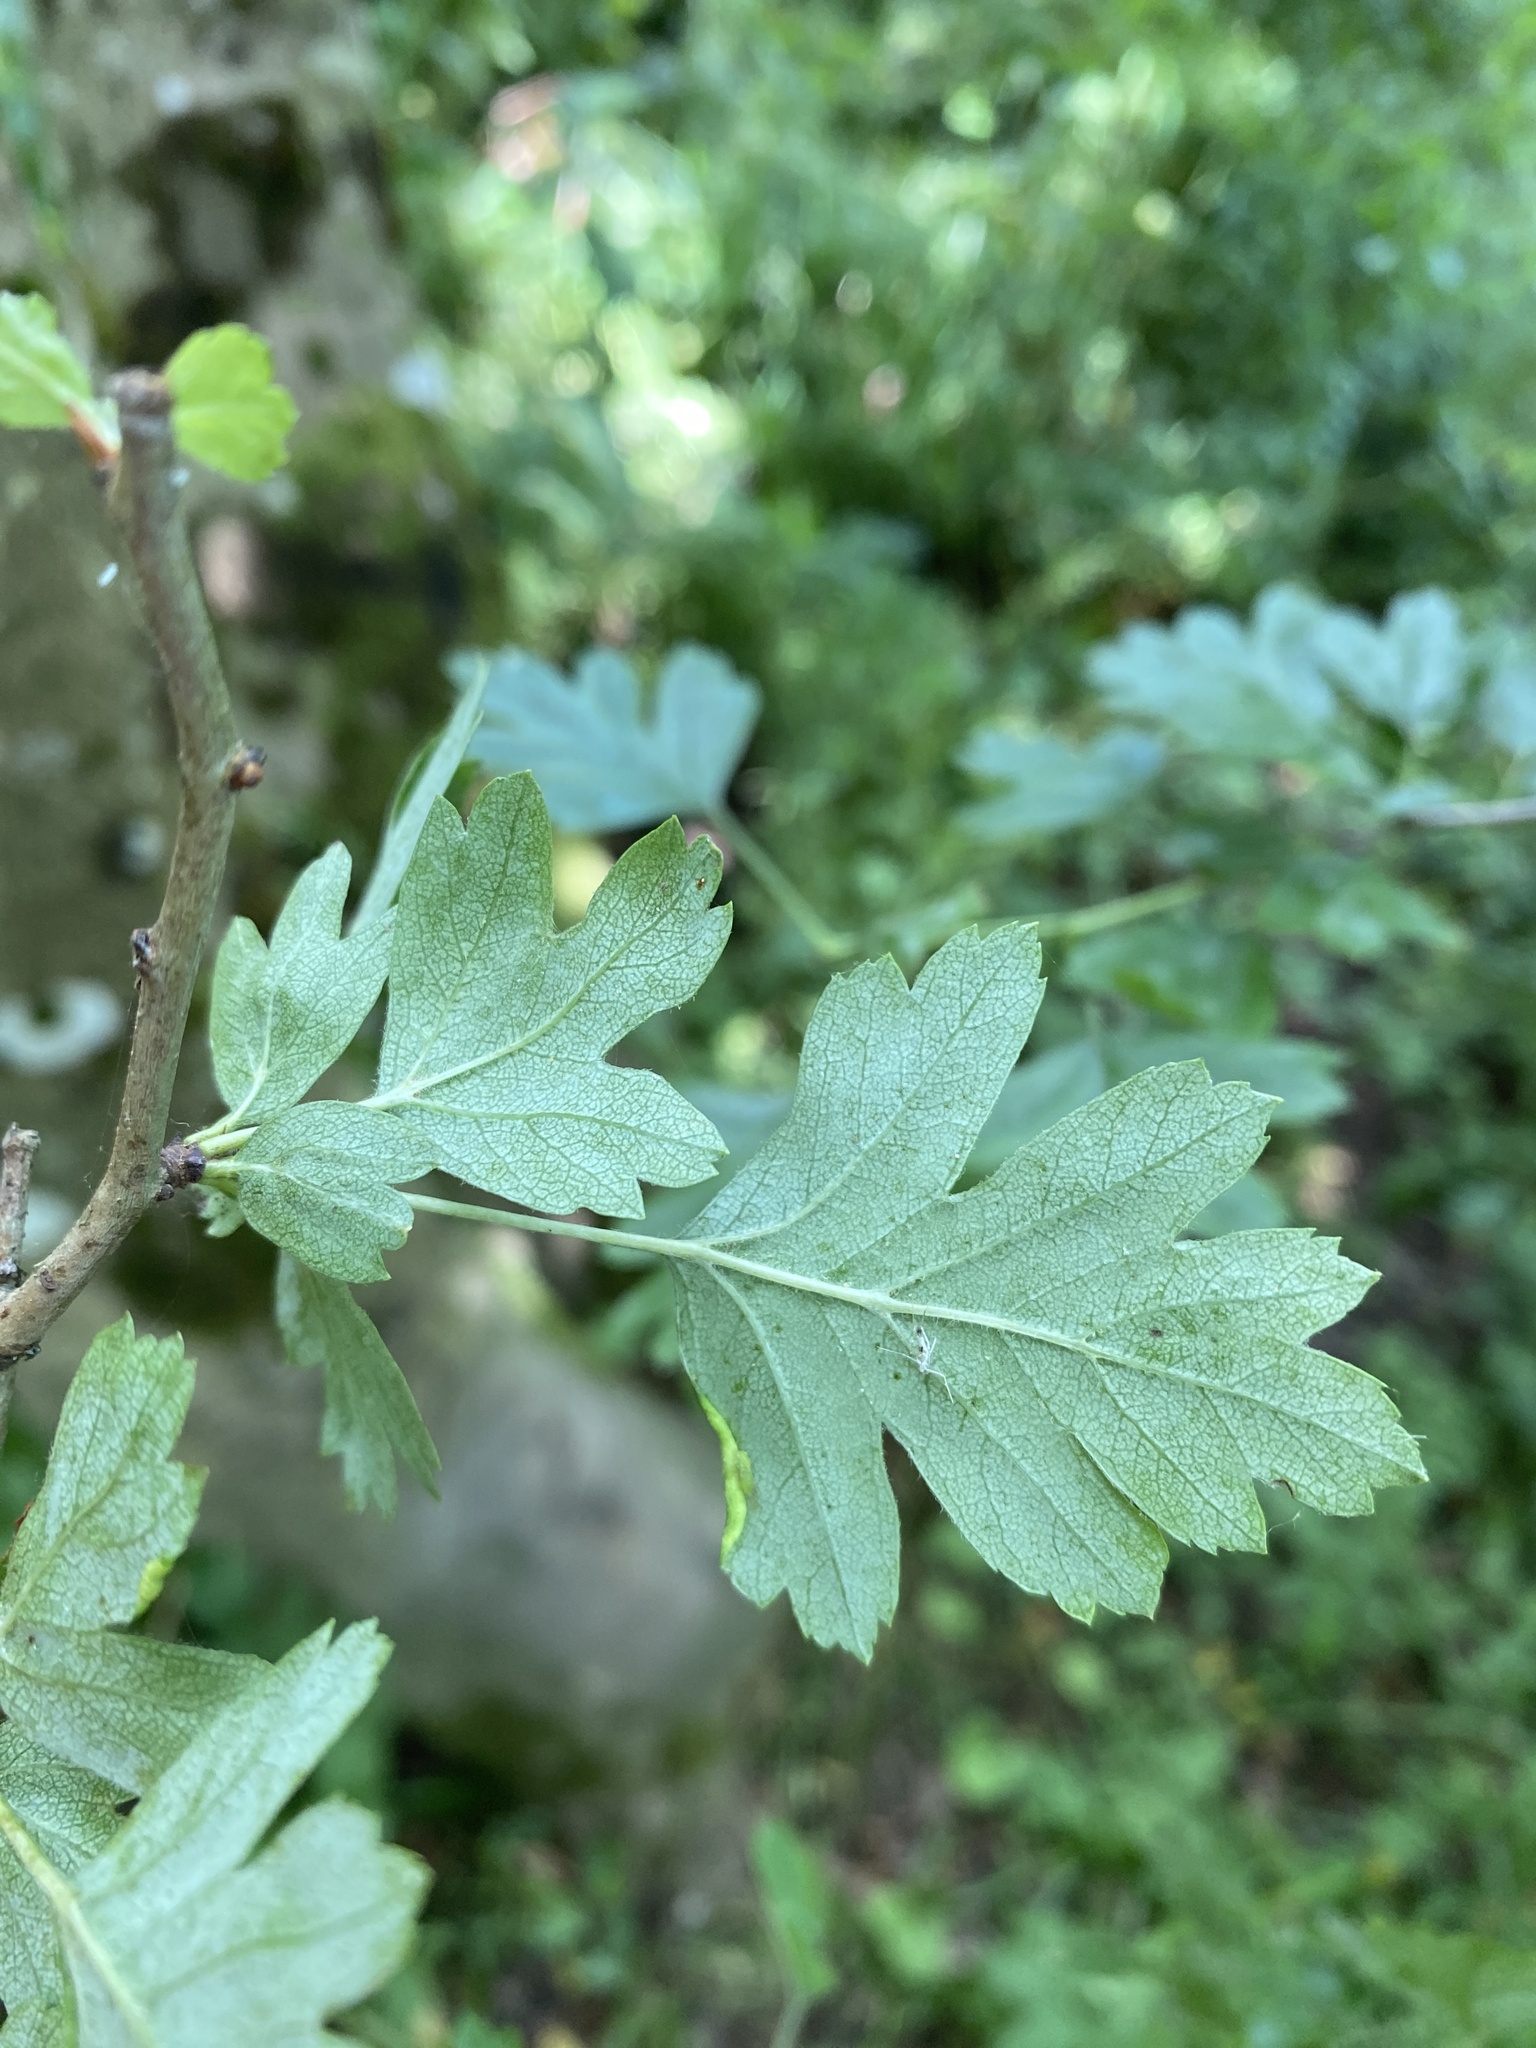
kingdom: Animalia
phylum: Arthropoda
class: Arachnida
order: Trombidiformes
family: Eriophyidae
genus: Phyllocoptes
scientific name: Phyllocoptes goniothorax
